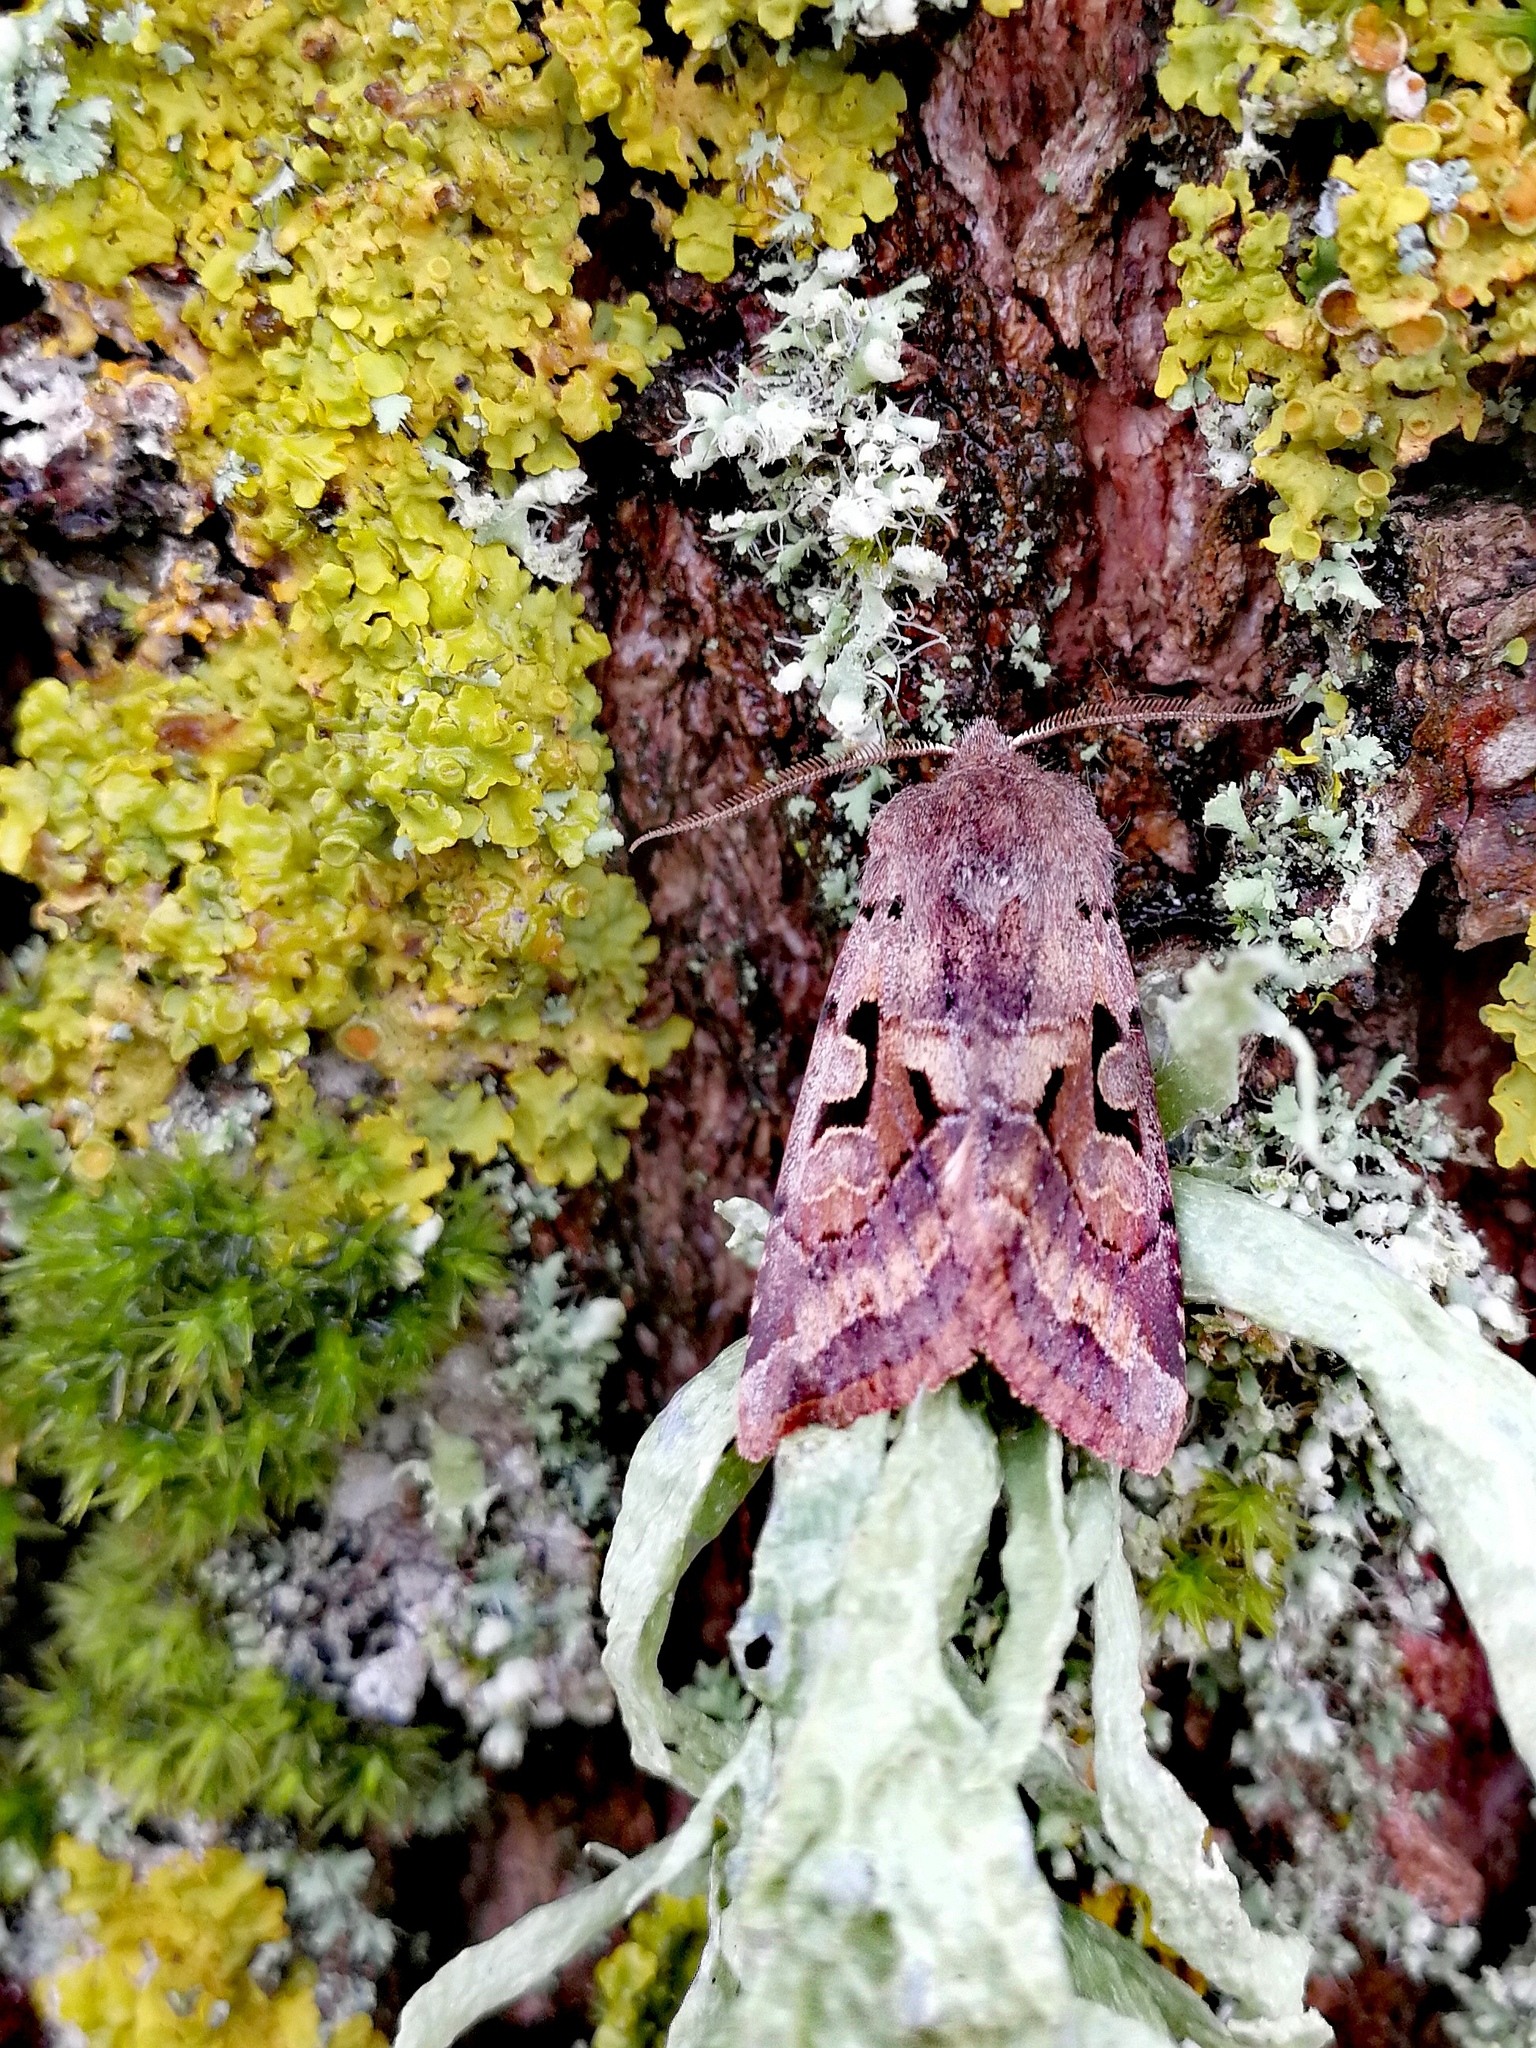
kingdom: Animalia
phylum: Arthropoda
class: Insecta
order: Lepidoptera
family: Noctuidae
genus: Orthosia
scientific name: Orthosia gothica
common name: Hebrew character
